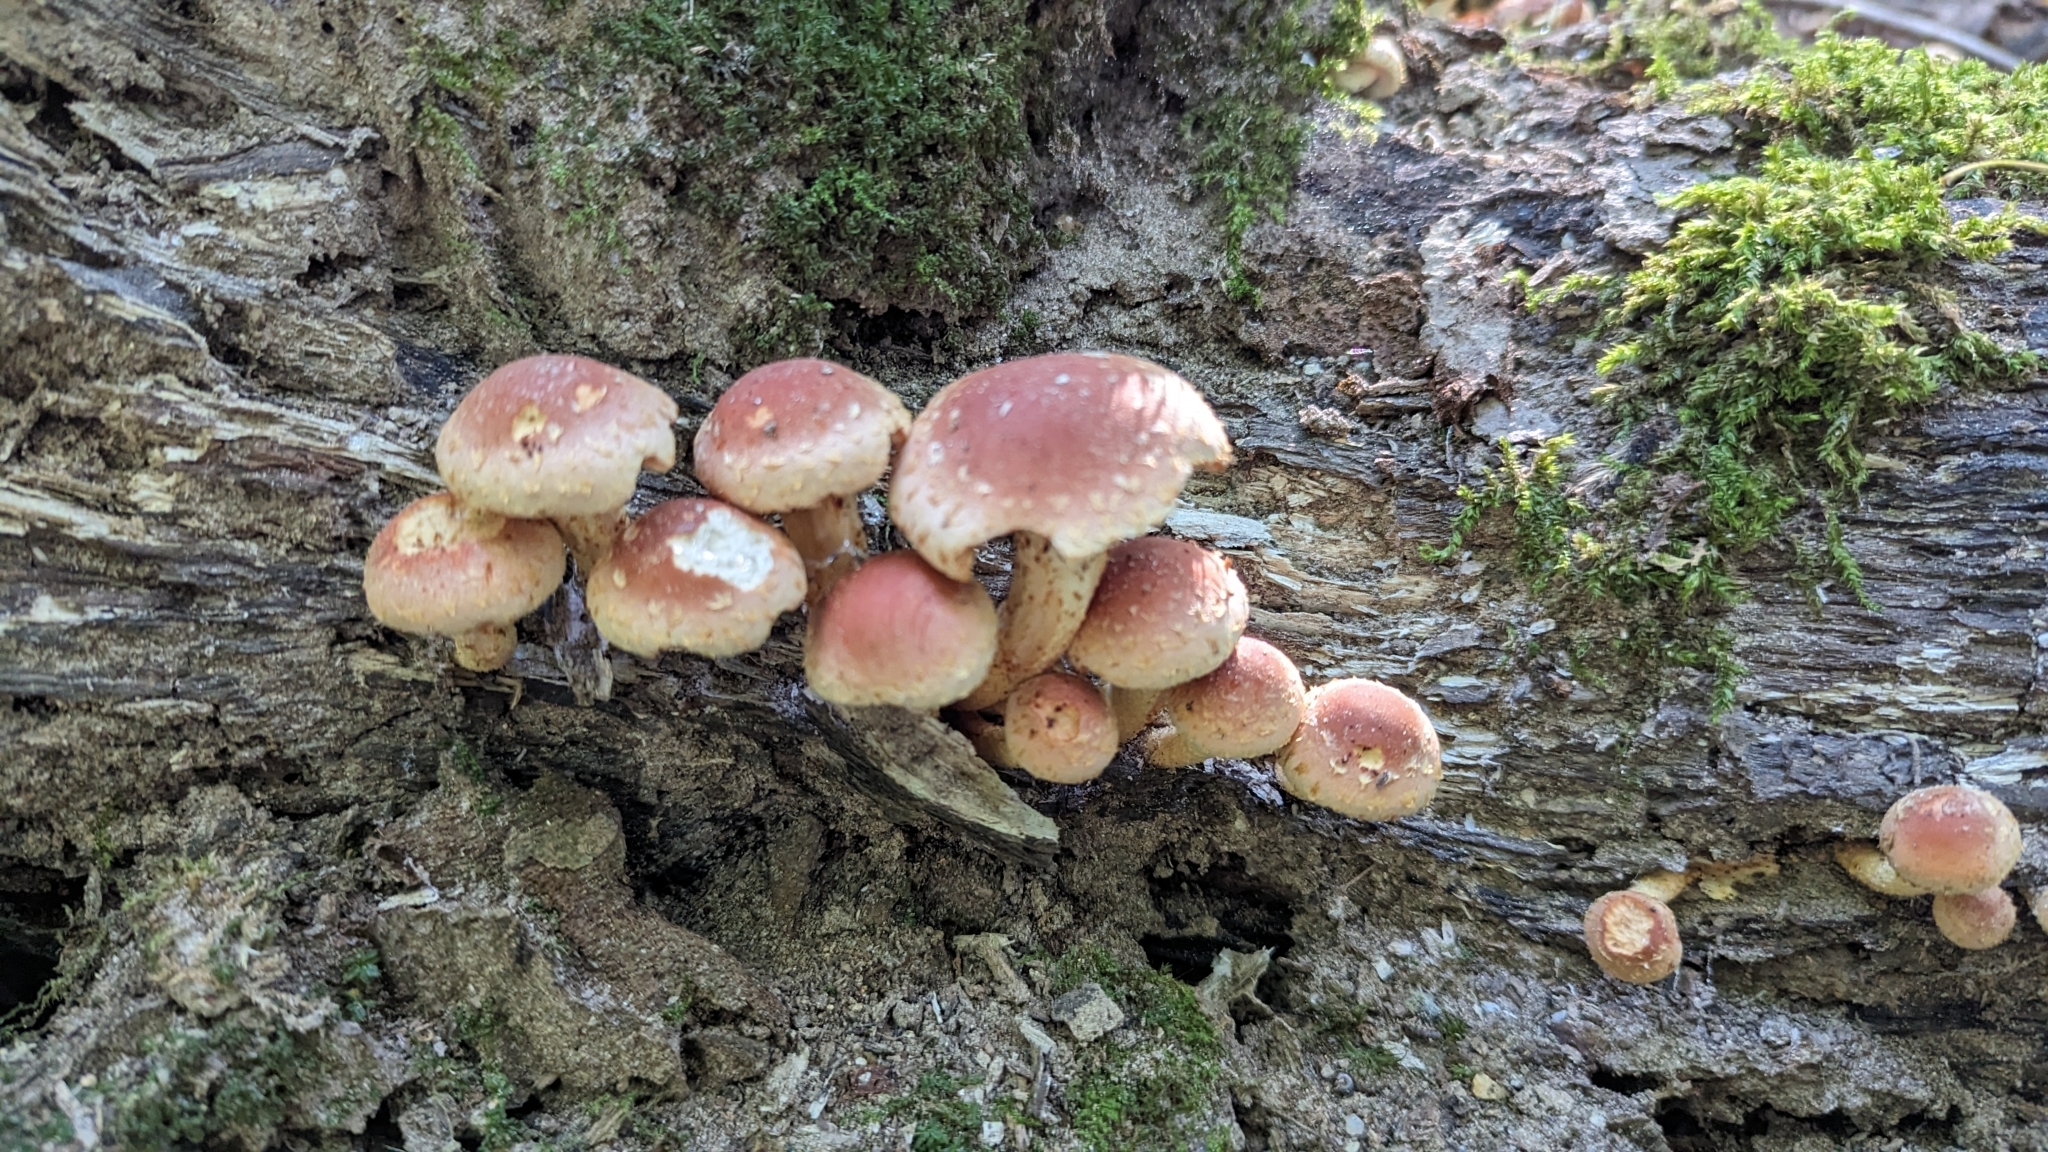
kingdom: Fungi
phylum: Basidiomycota
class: Agaricomycetes
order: Agaricales
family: Strophariaceae
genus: Hypholoma
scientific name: Hypholoma lateritium
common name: Brick caps
